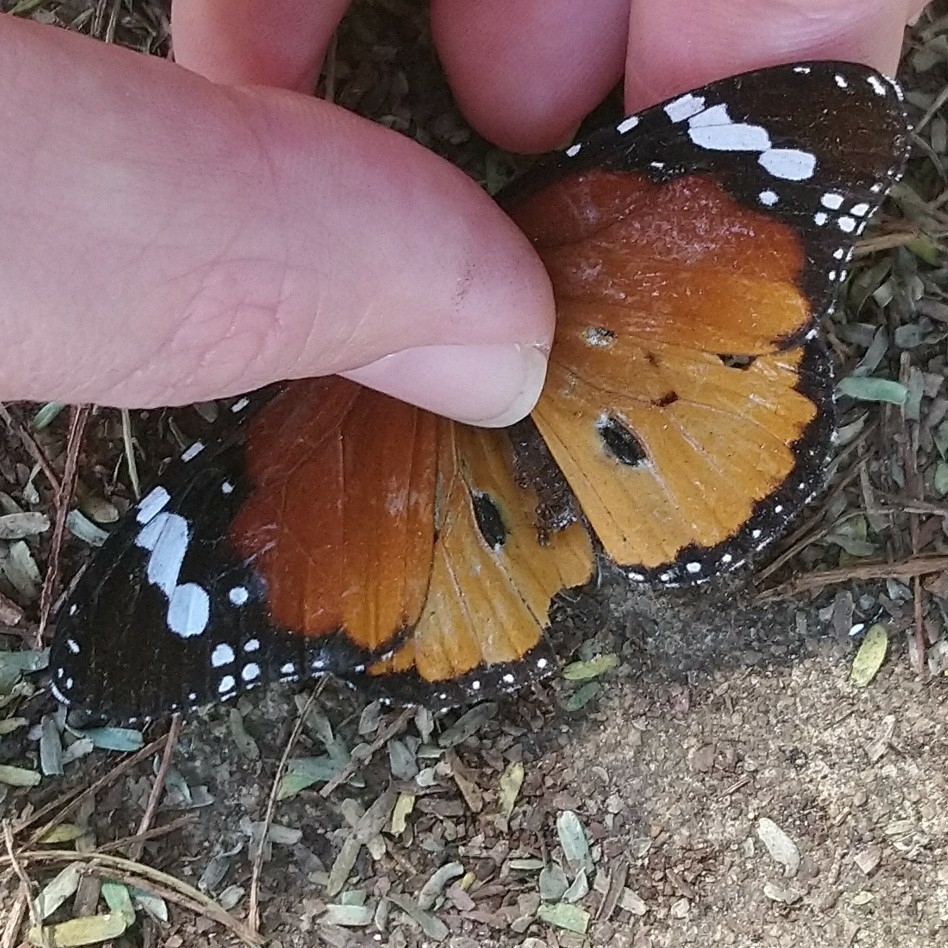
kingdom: Animalia
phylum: Arthropoda
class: Insecta
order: Lepidoptera
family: Nymphalidae
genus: Danaus
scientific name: Danaus chrysippus
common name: Plain tiger
